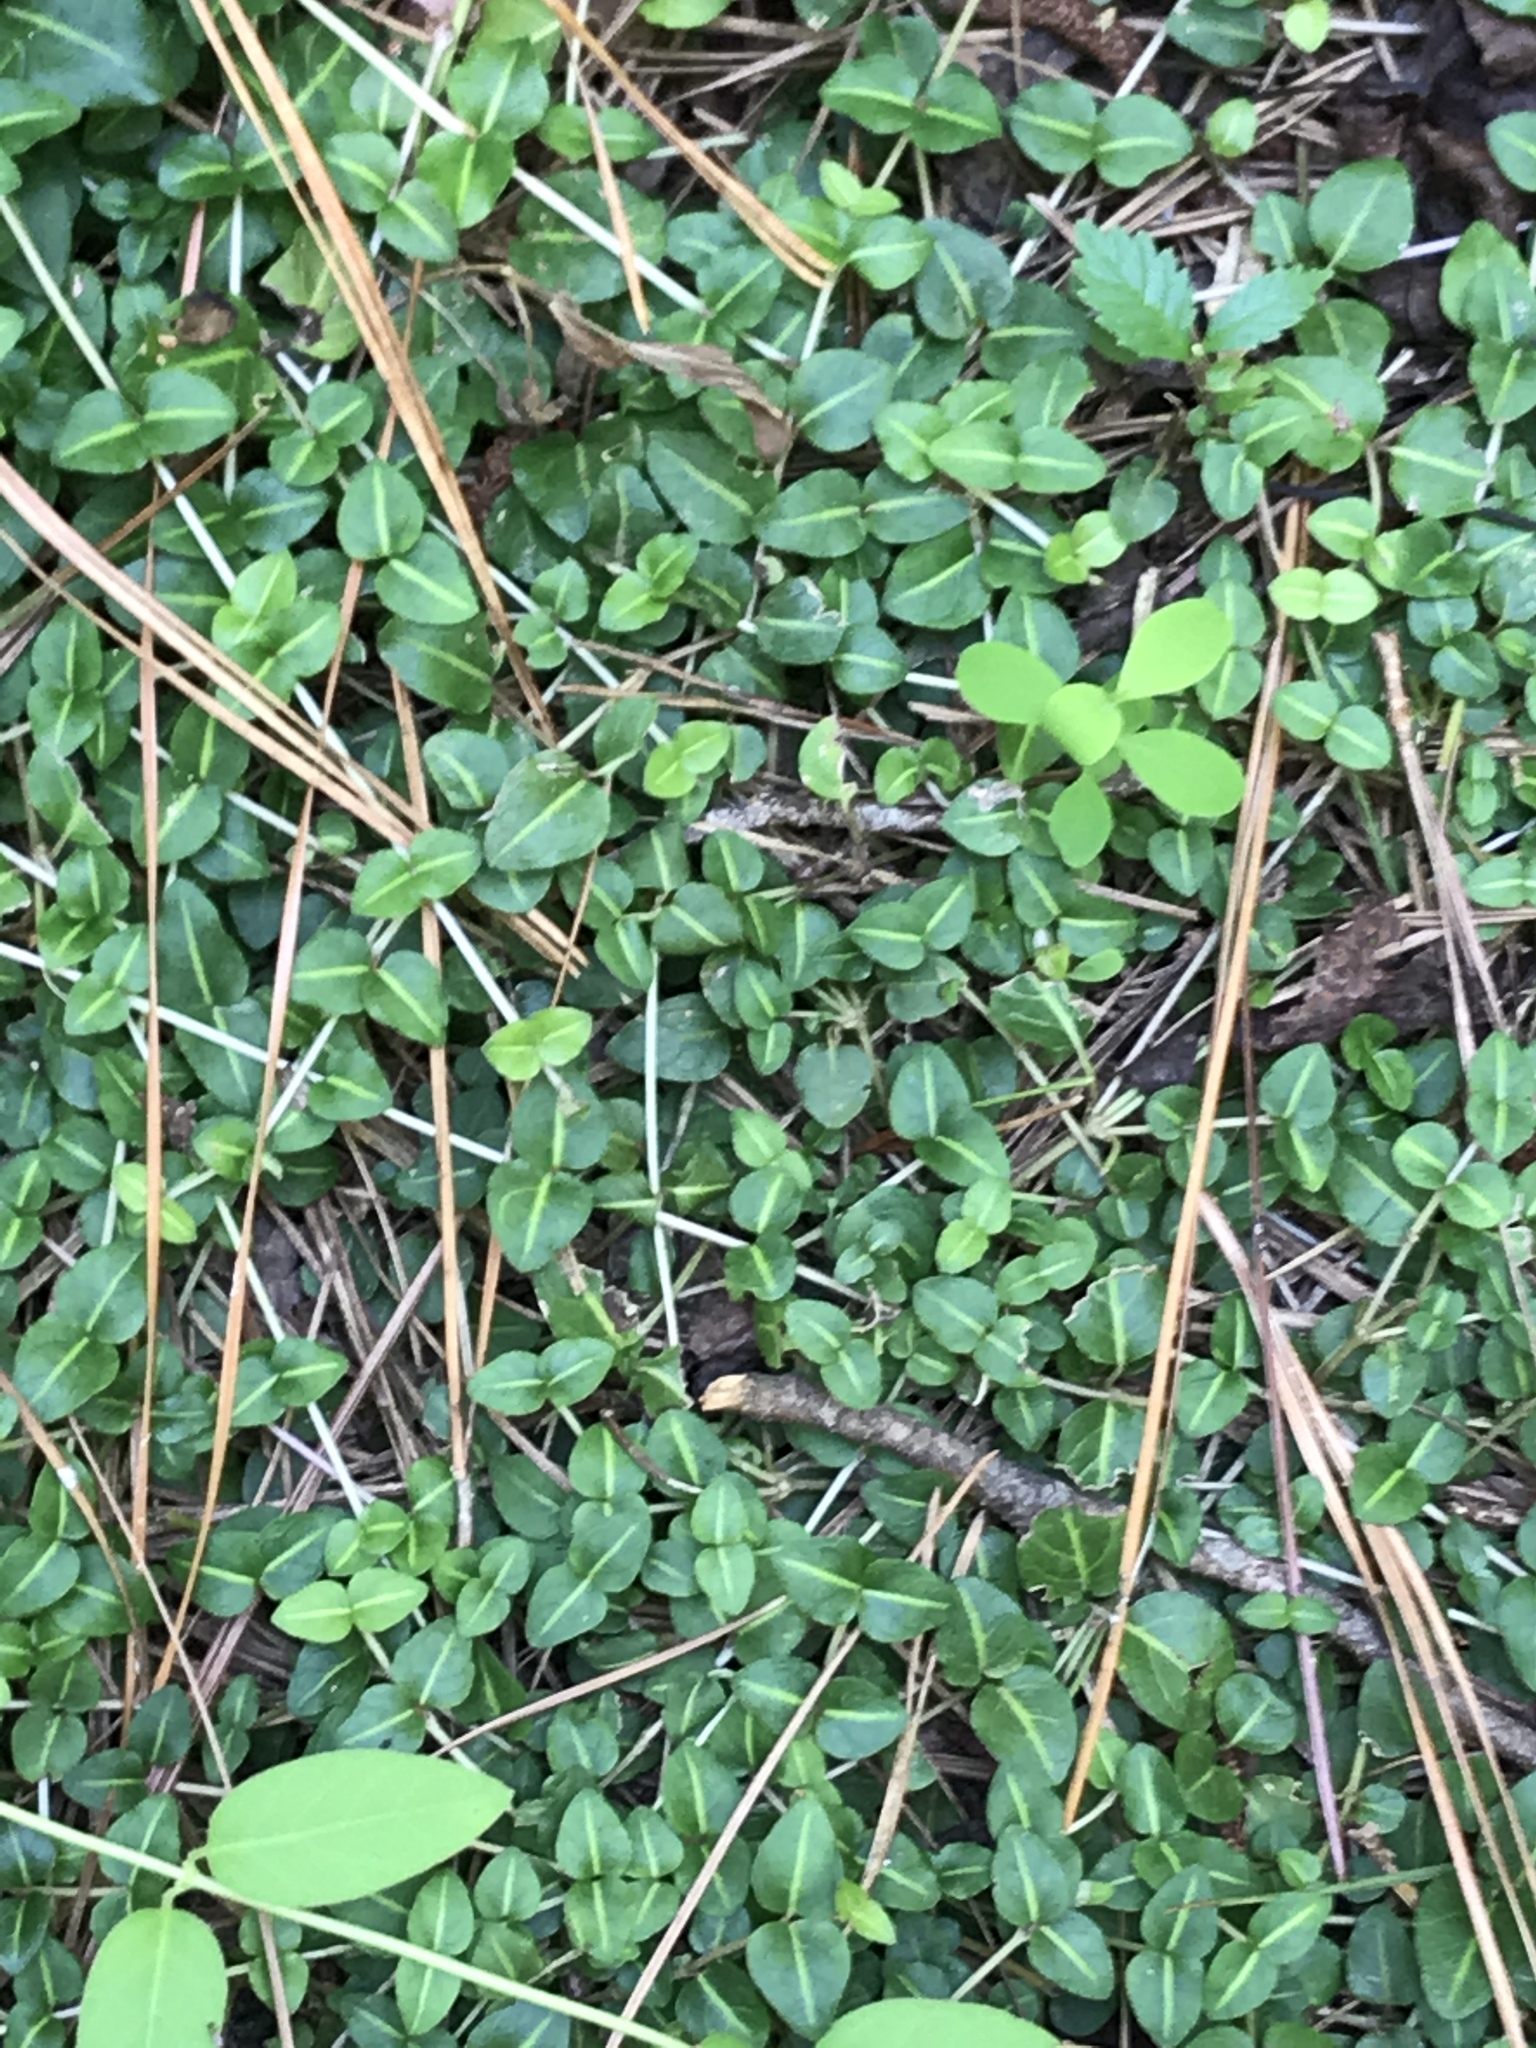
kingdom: Plantae
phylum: Tracheophyta
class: Magnoliopsida
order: Gentianales
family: Rubiaceae
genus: Mitchella
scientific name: Mitchella repens
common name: Partridge-berry
